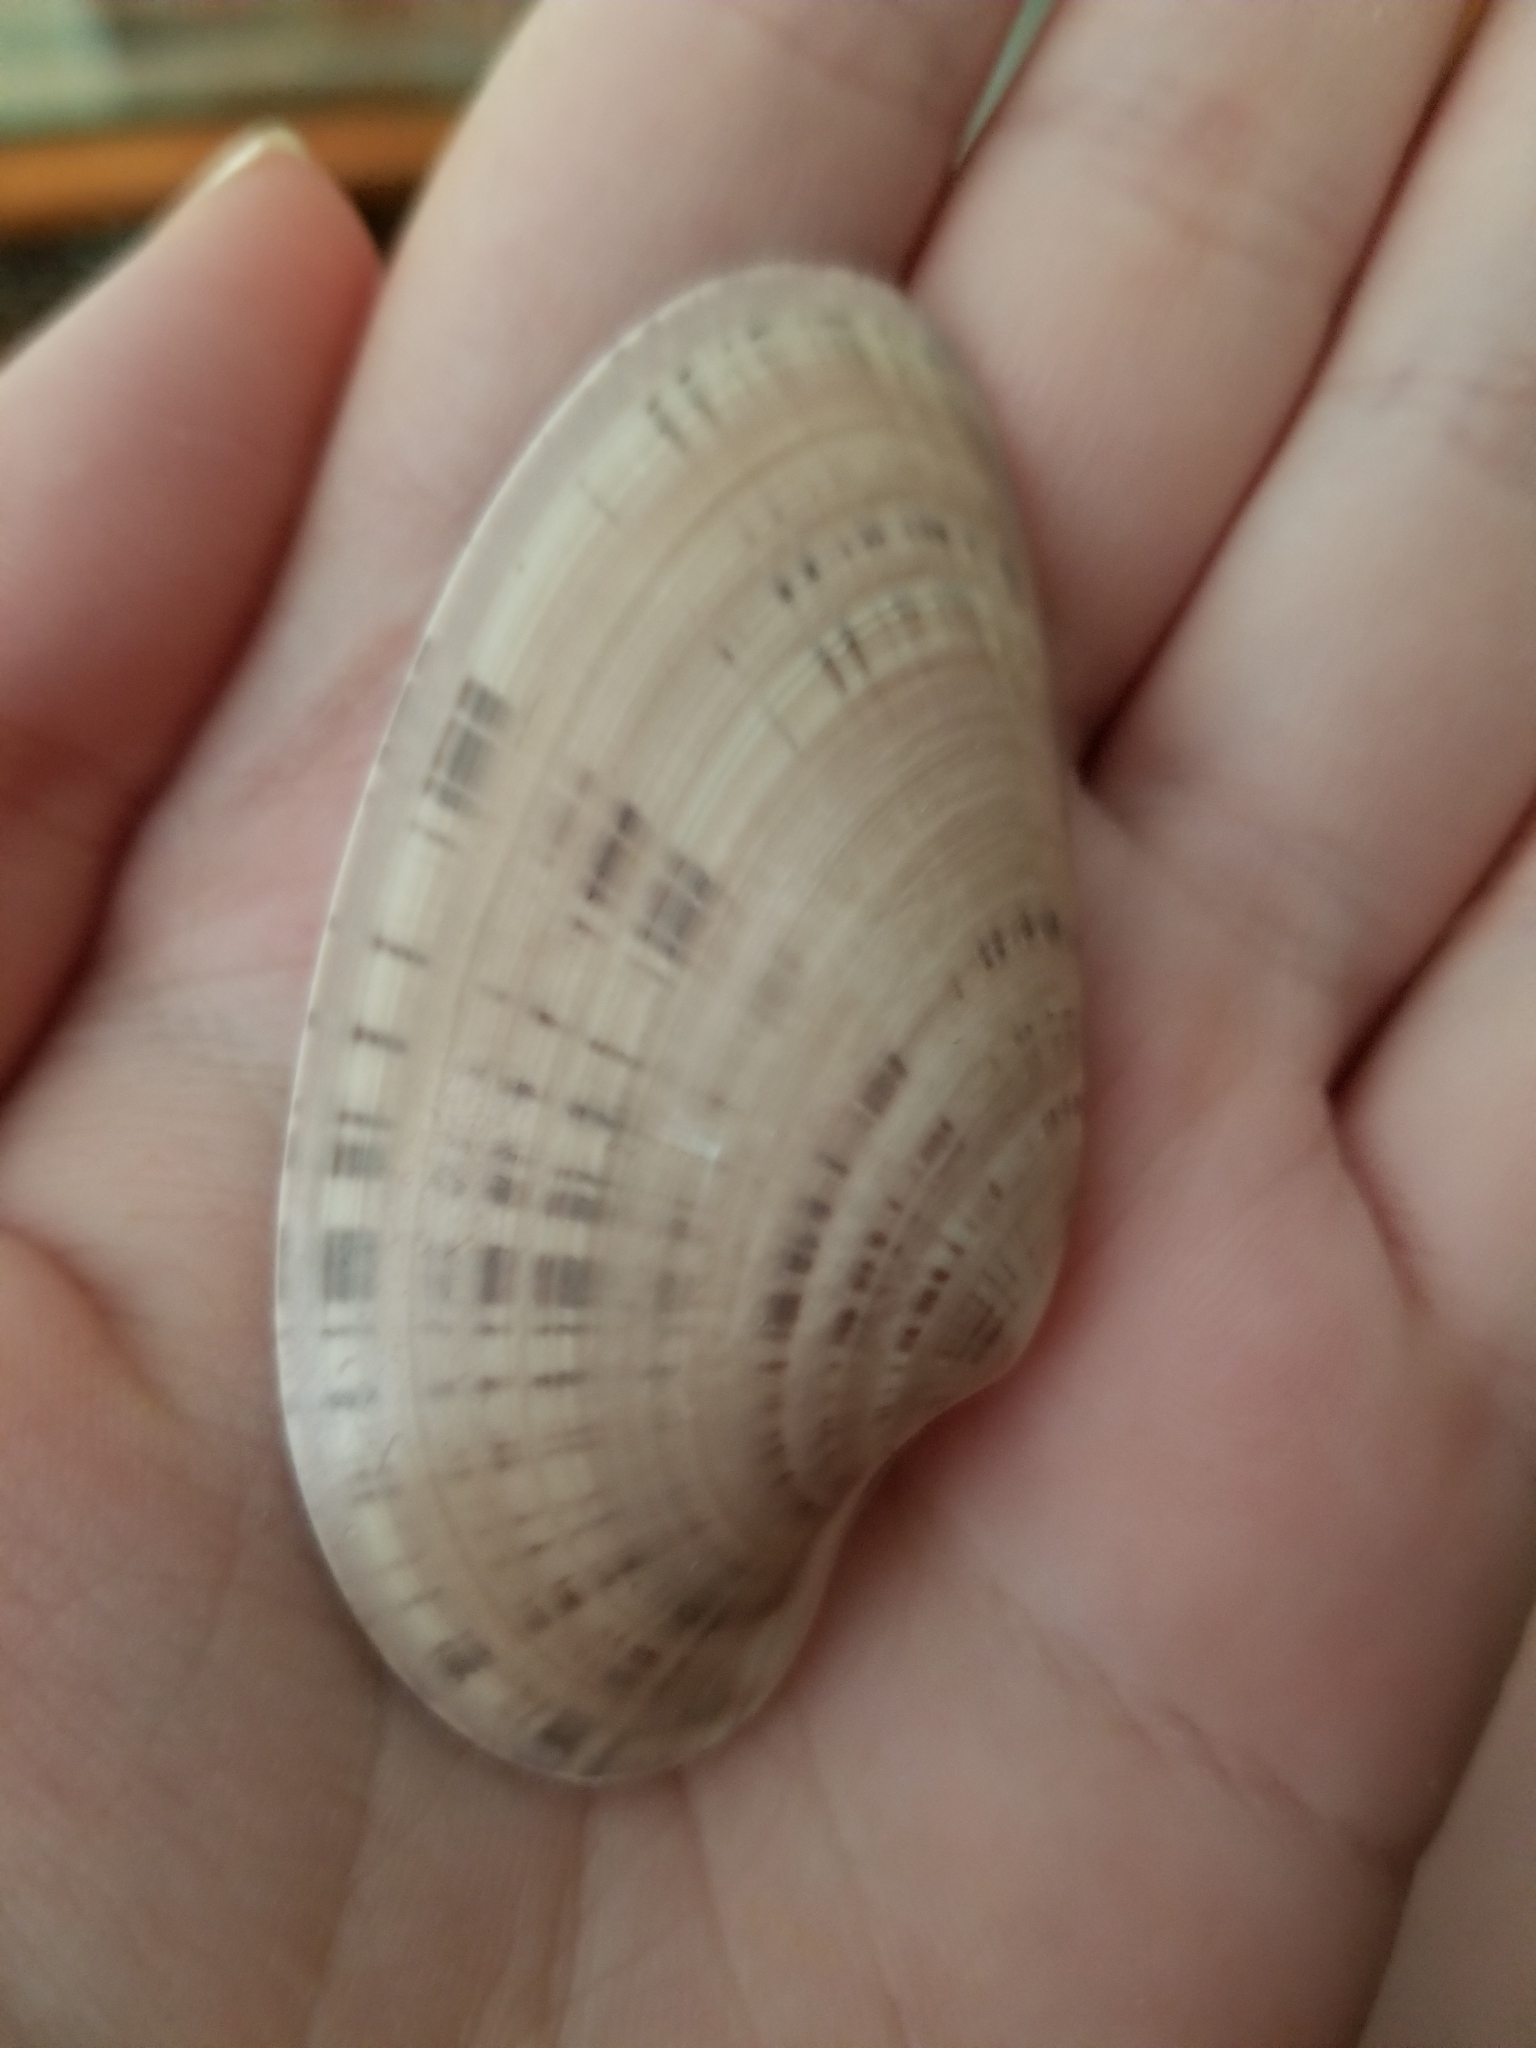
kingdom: Animalia
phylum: Mollusca
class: Bivalvia
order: Venerida
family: Veneridae
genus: Macrocallista
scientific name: Macrocallista nimbosa
